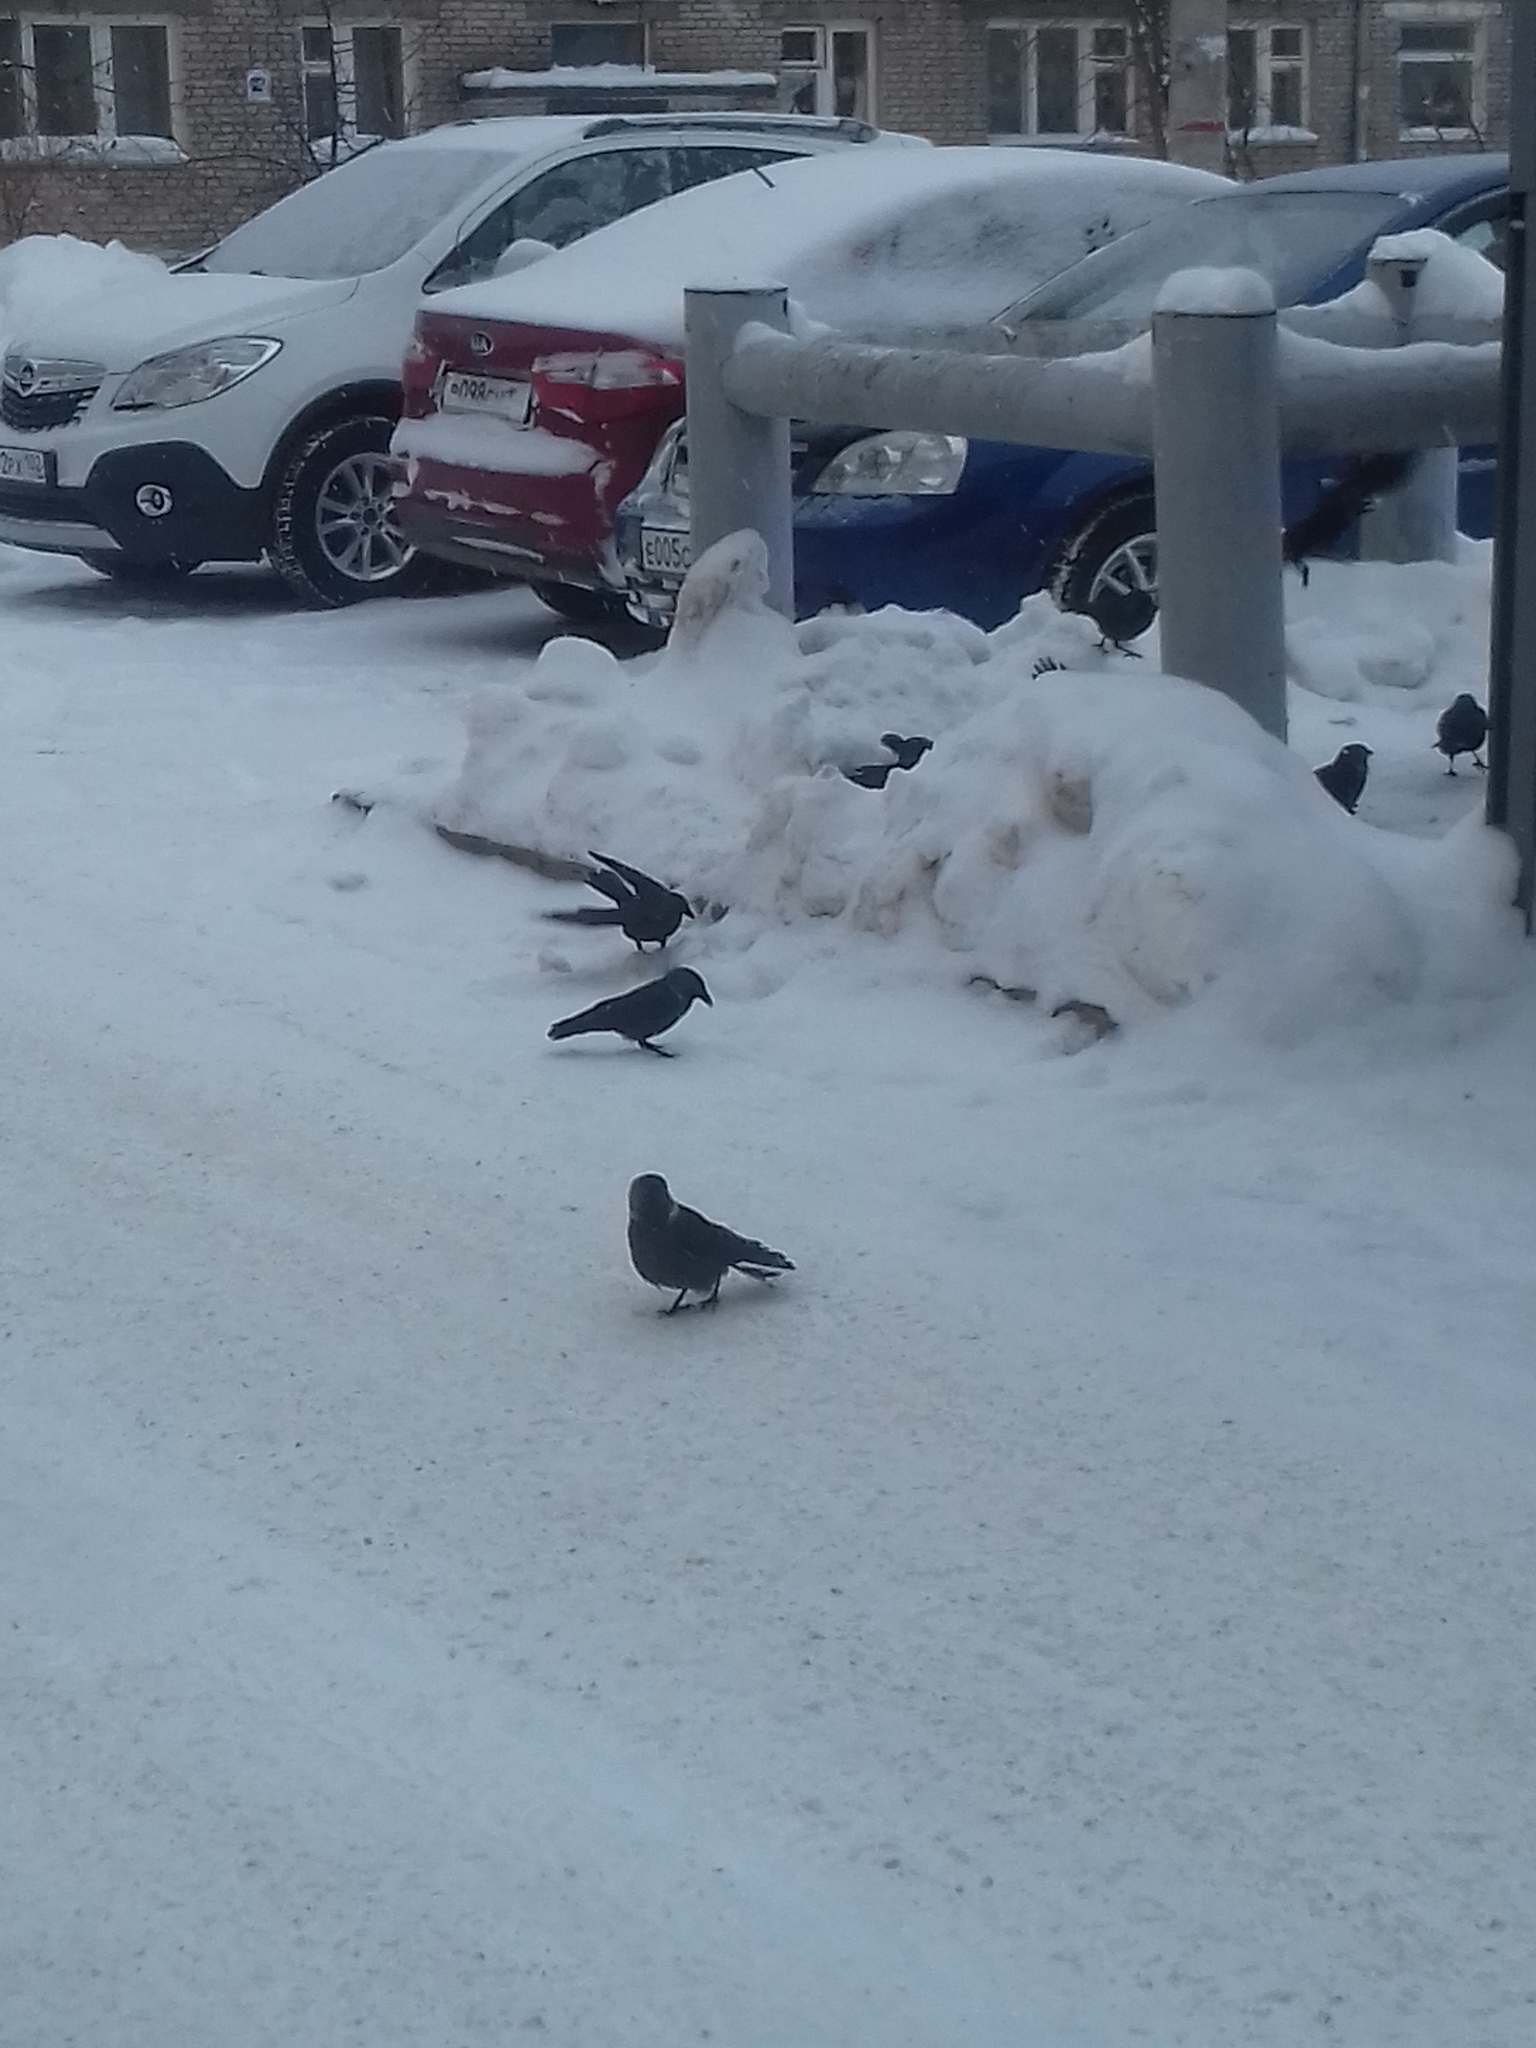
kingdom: Animalia
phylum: Chordata
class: Aves
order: Passeriformes
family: Corvidae
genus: Coloeus
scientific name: Coloeus monedula
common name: Western jackdaw
